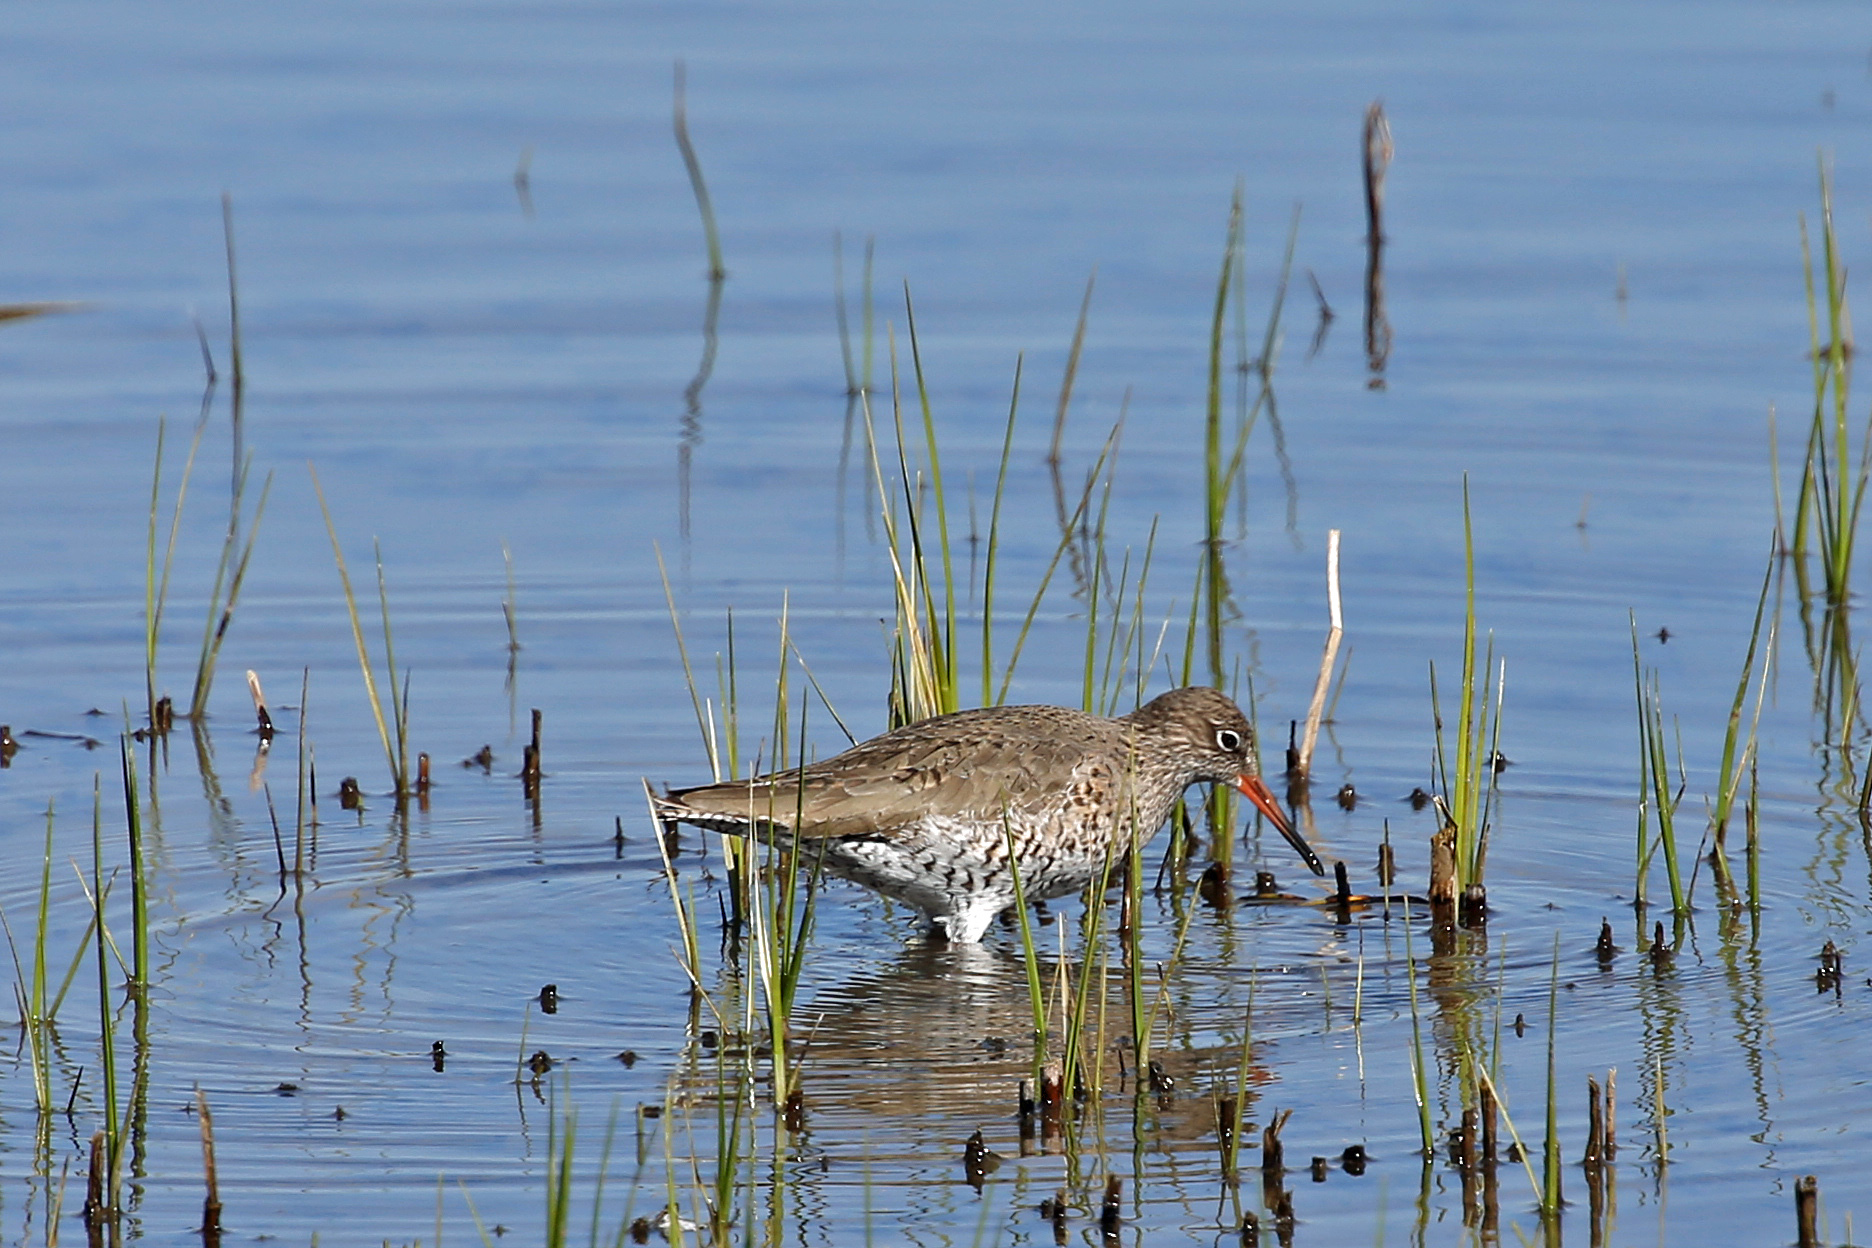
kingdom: Animalia
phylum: Chordata
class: Aves
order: Charadriiformes
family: Scolopacidae
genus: Tringa
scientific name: Tringa totanus
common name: Common redshank
